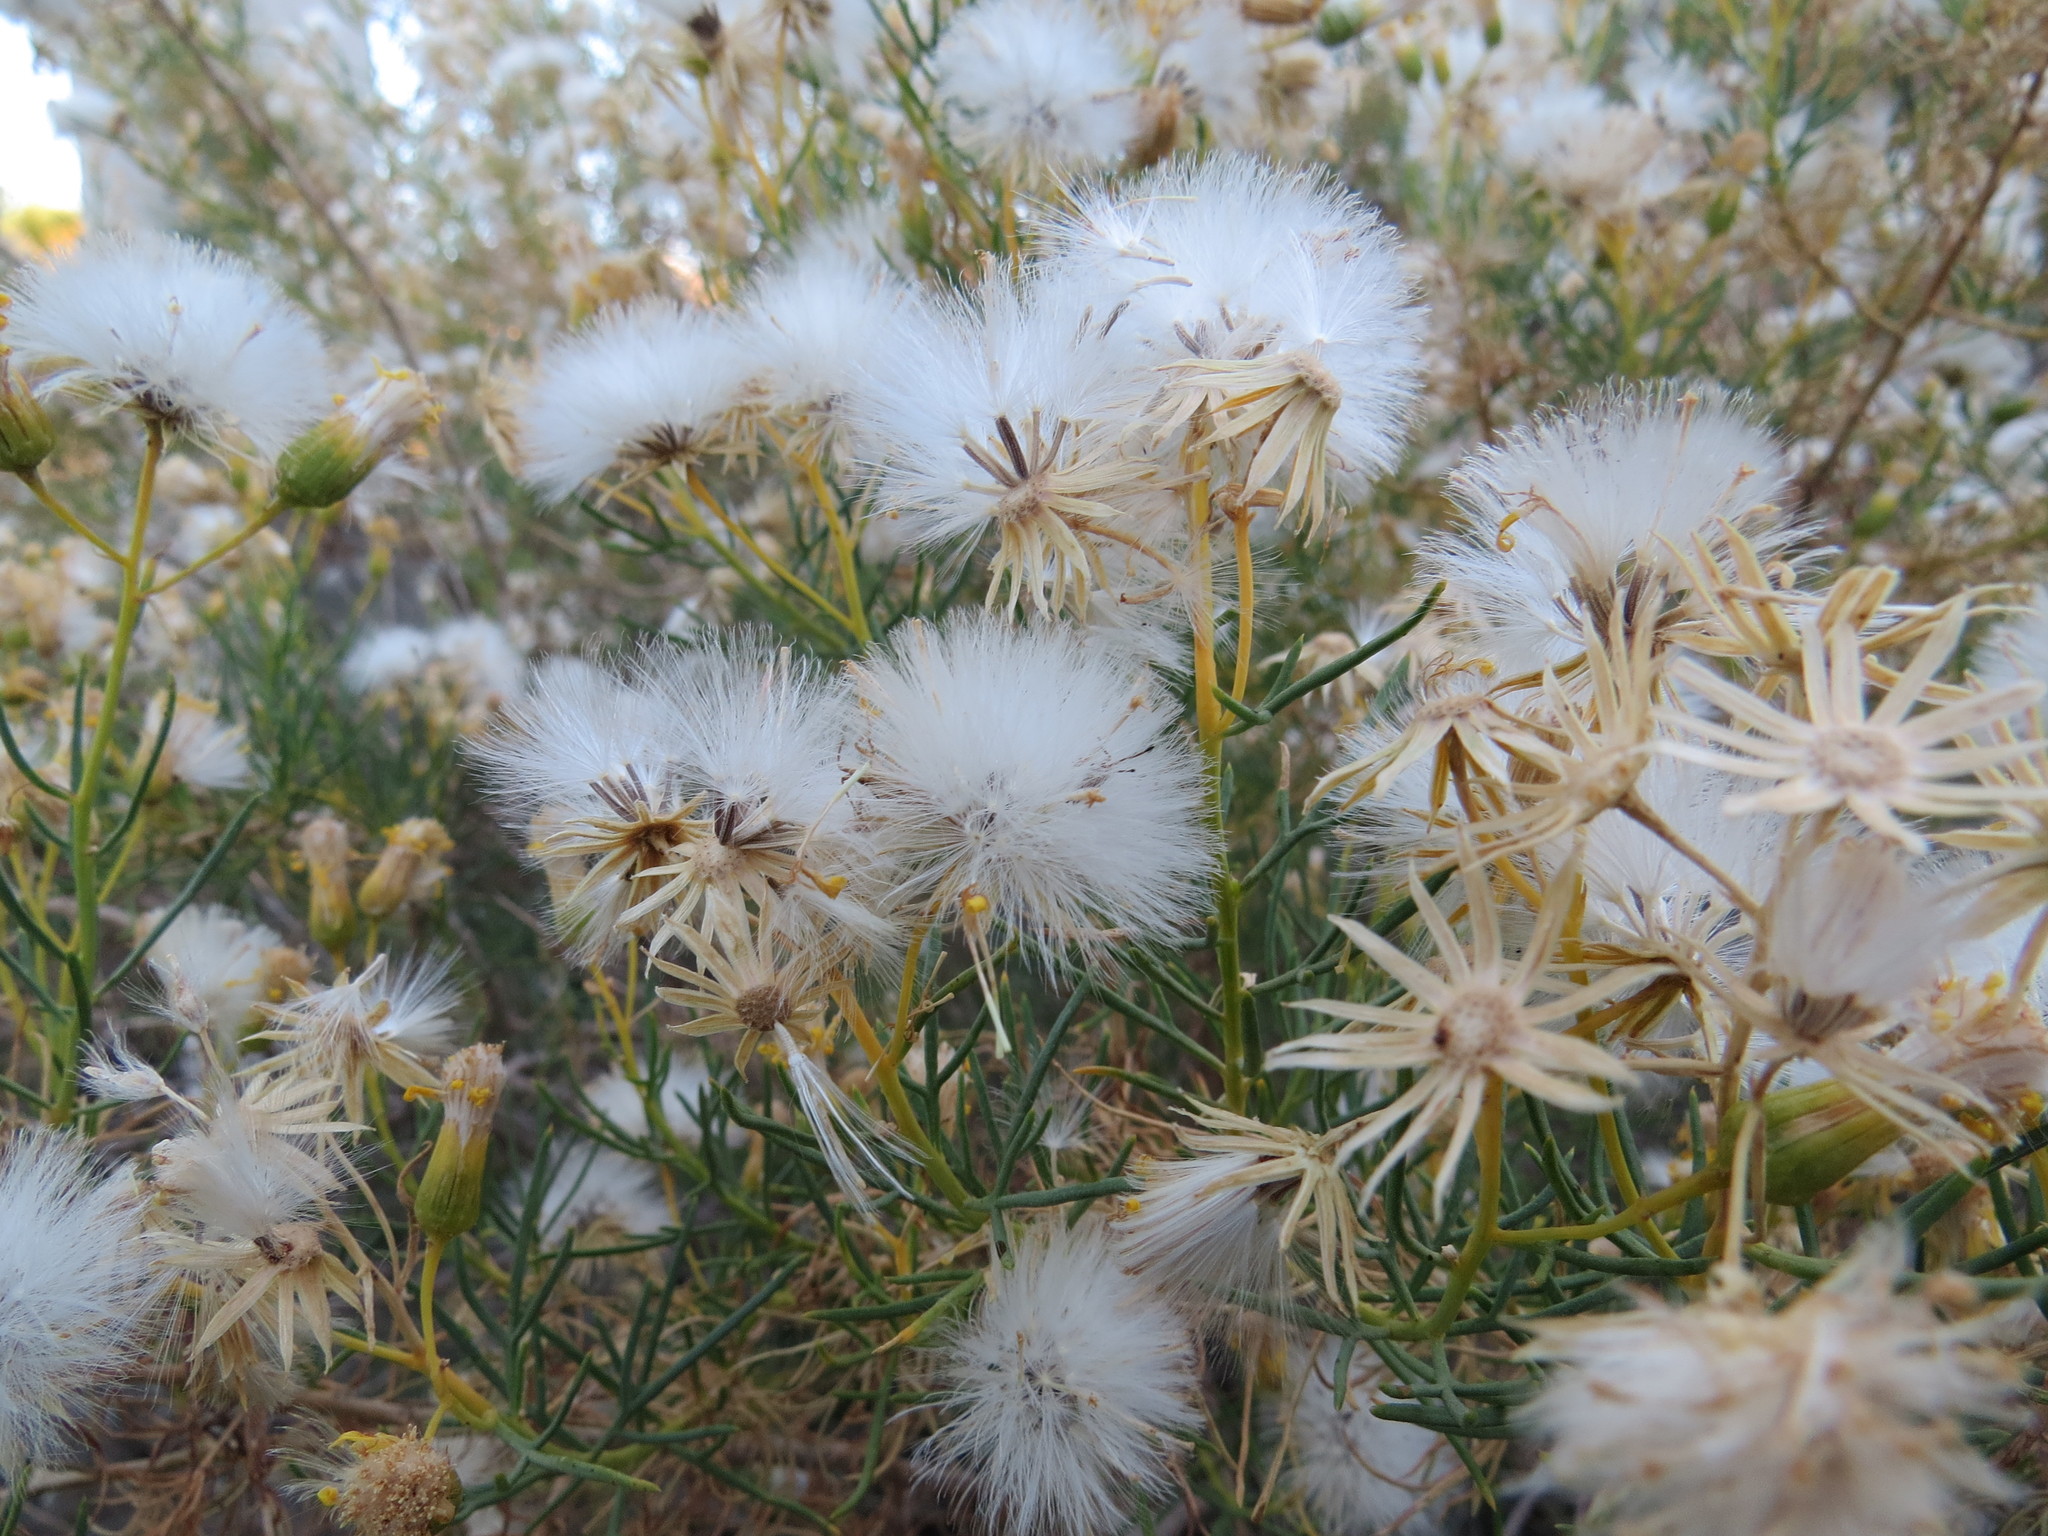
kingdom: Plantae
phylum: Tracheophyta
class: Magnoliopsida
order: Asterales
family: Asteraceae
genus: Senecio
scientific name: Senecio subulatus
